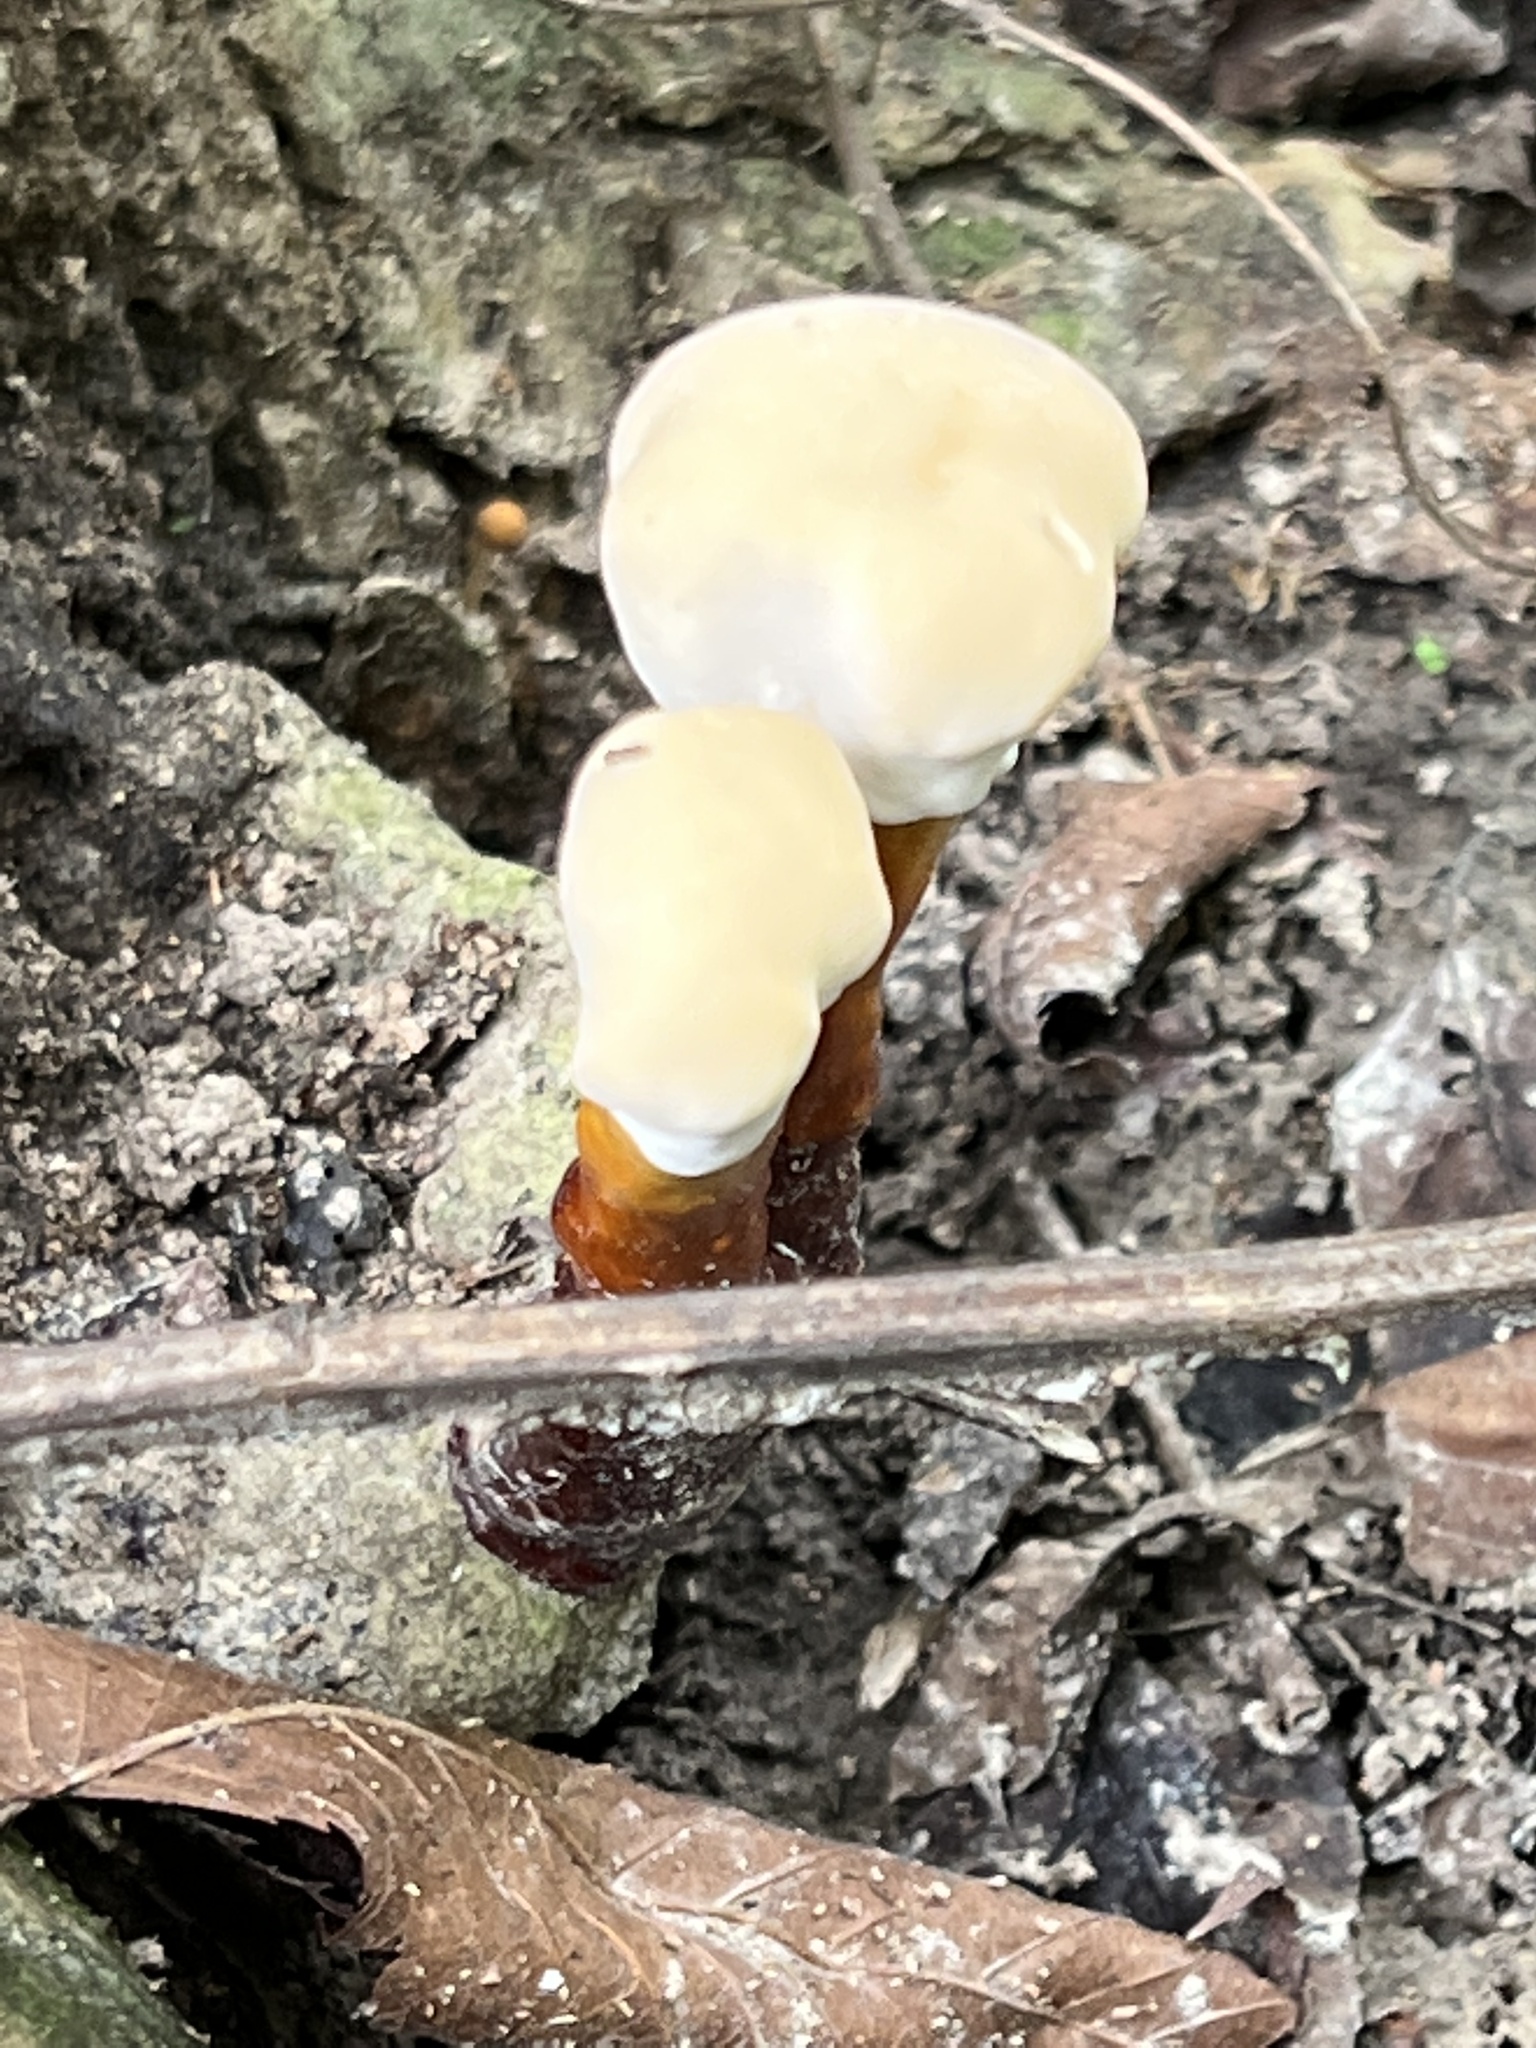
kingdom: Fungi
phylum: Basidiomycota
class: Agaricomycetes
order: Polyporales
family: Polyporaceae
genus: Ganoderma
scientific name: Ganoderma curtisii
